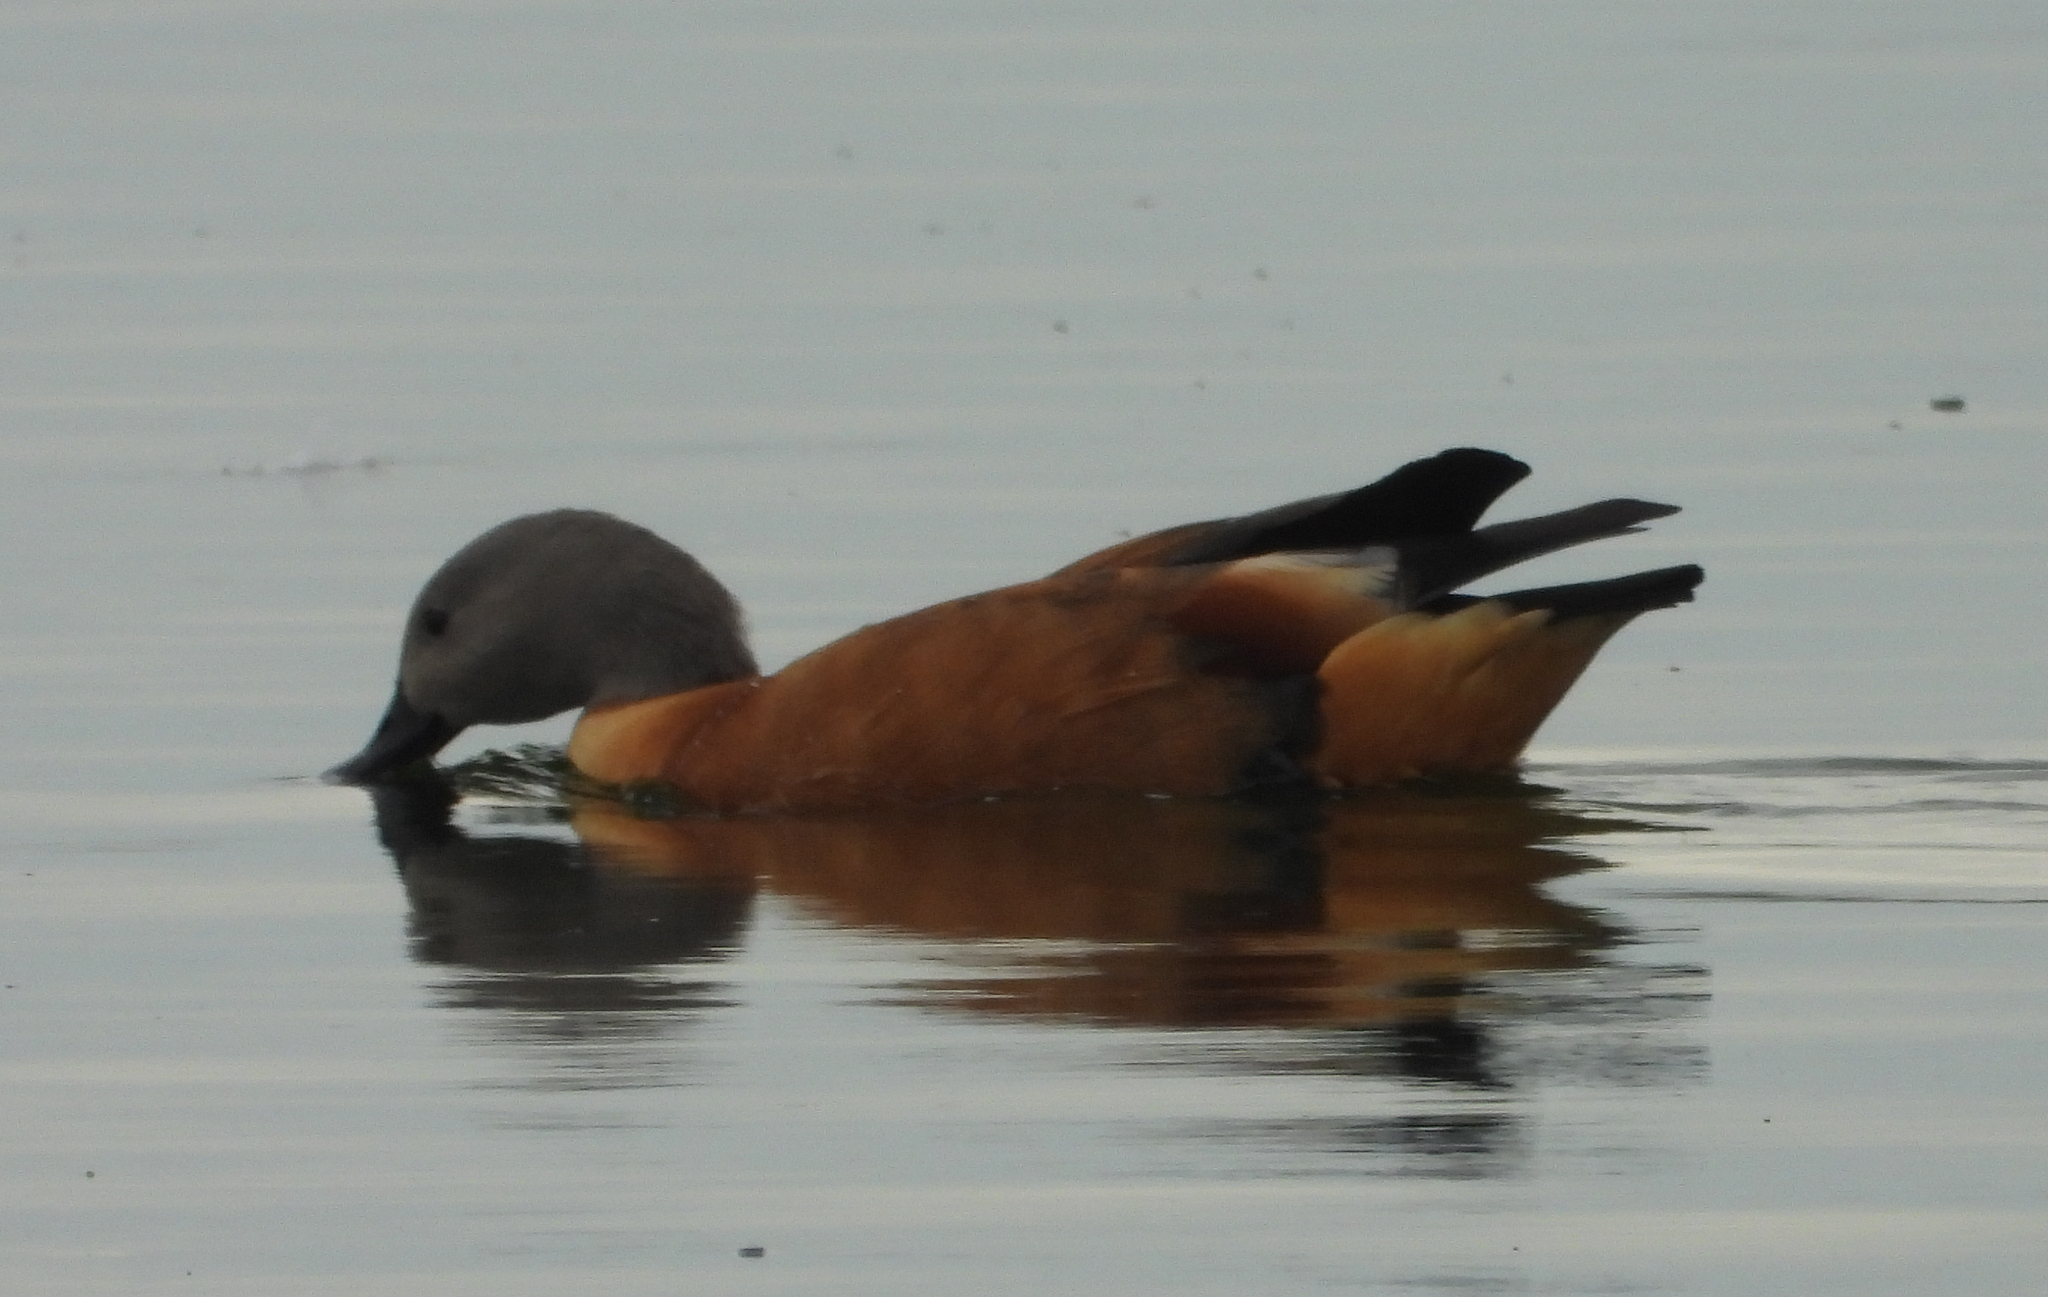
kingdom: Animalia
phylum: Chordata
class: Aves
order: Anseriformes
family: Anatidae
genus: Tadorna
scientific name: Tadorna cana
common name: South african shelduck
